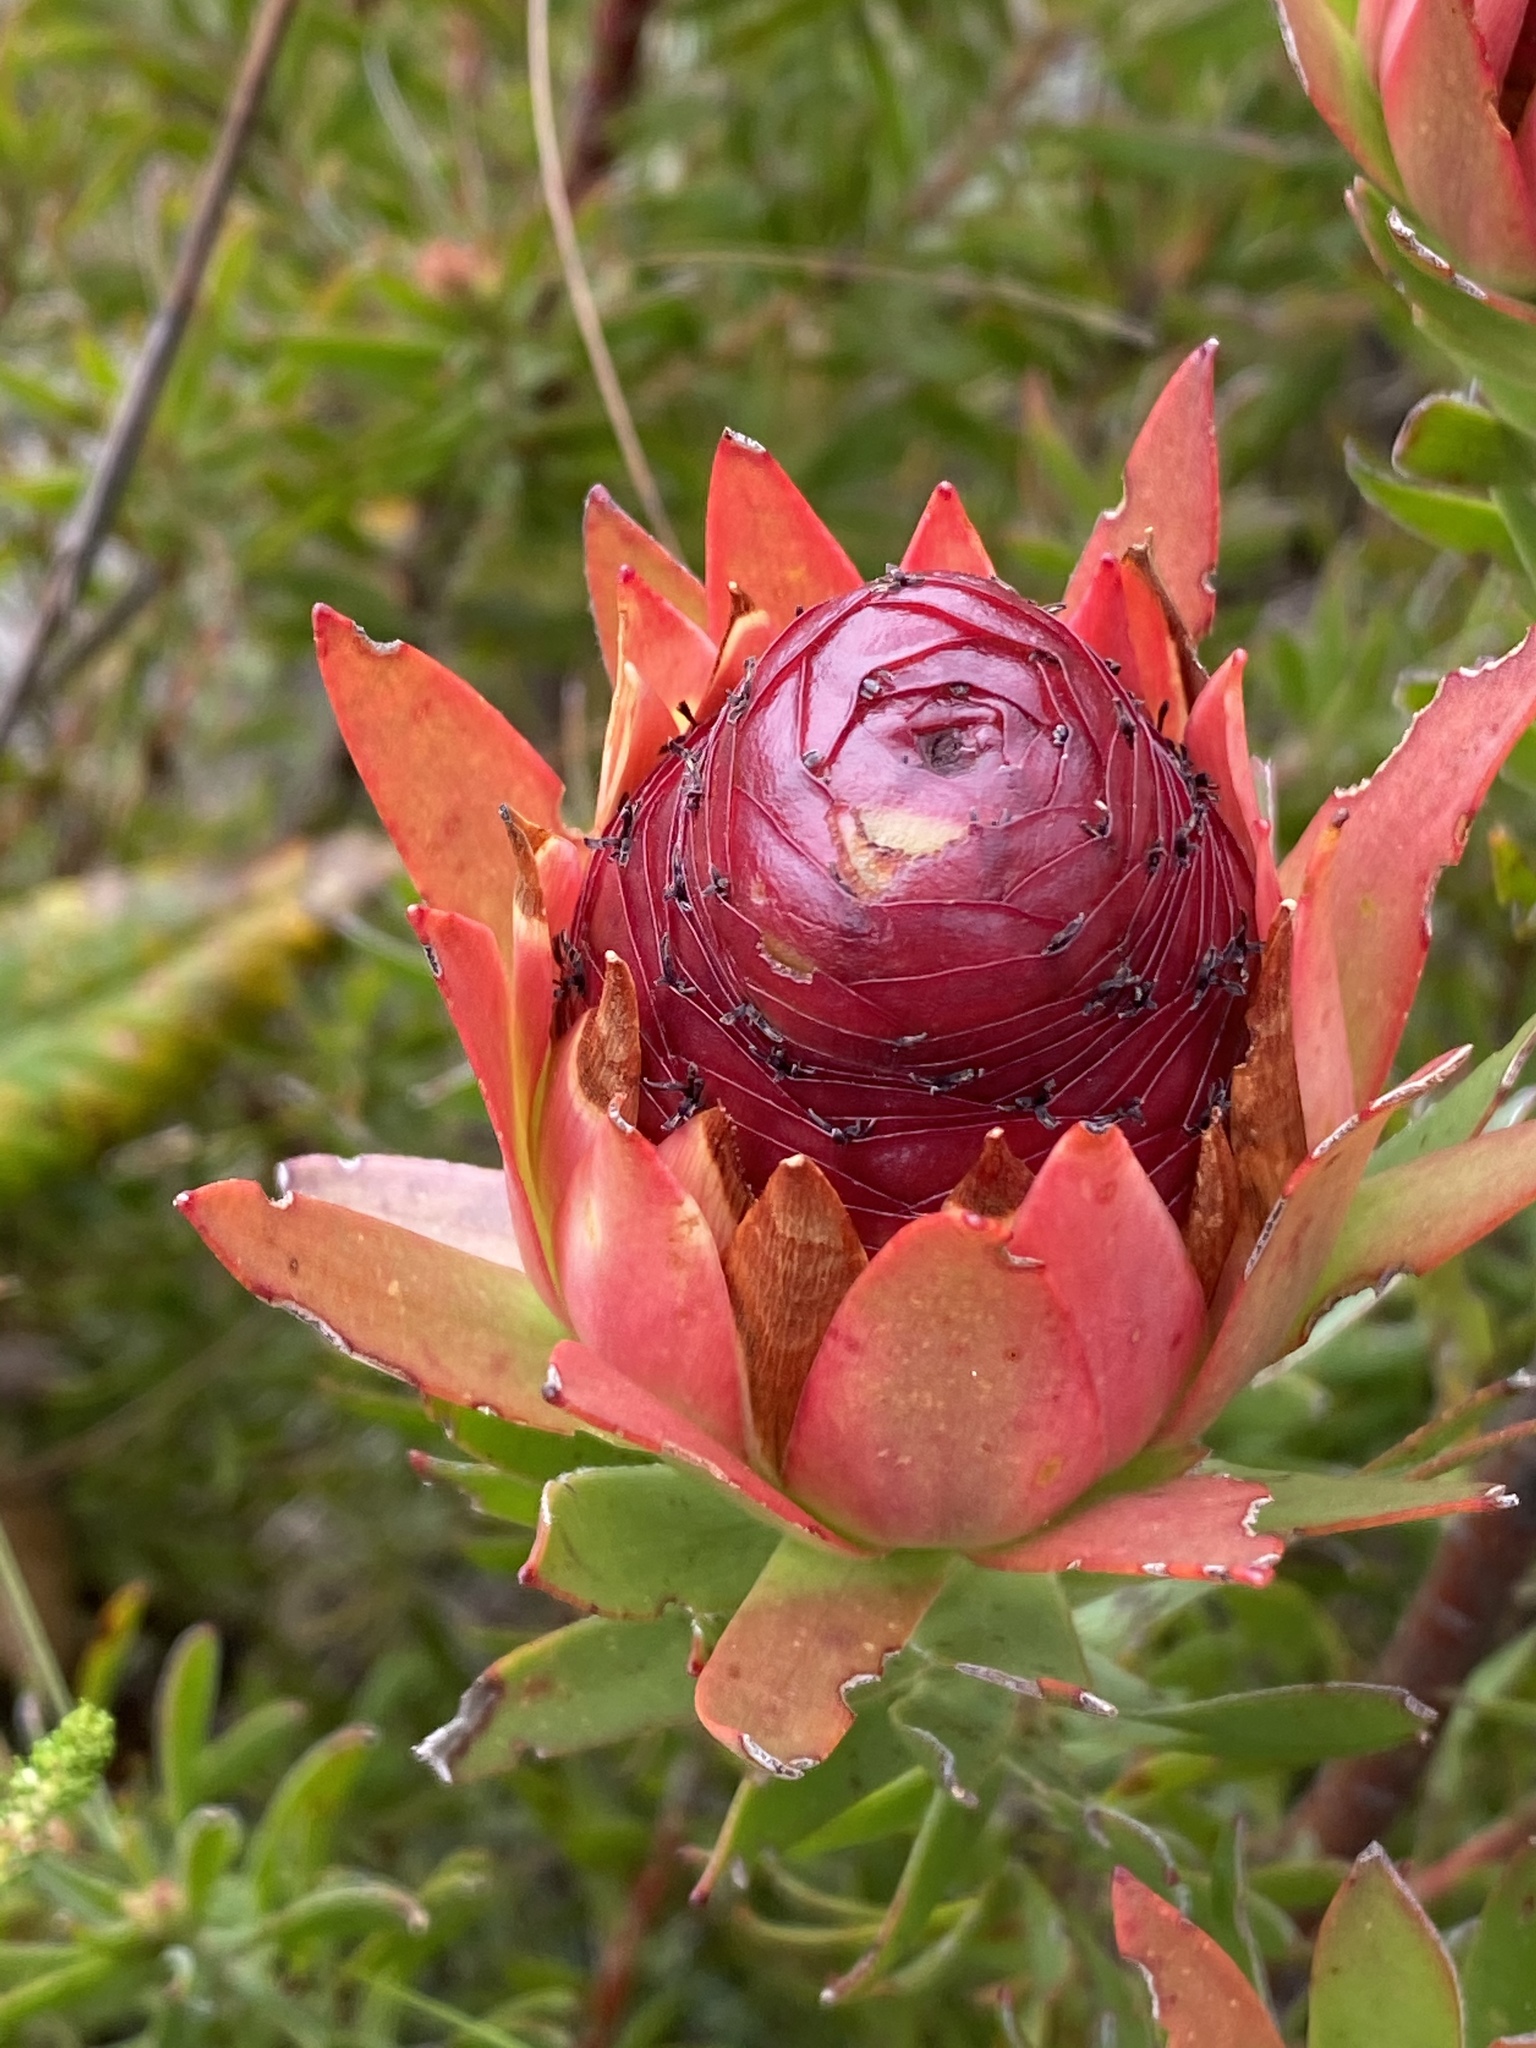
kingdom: Plantae
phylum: Tracheophyta
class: Magnoliopsida
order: Proteales
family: Proteaceae
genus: Leucadendron
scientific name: Leucadendron spissifolium
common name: Spear-leaf conebush
